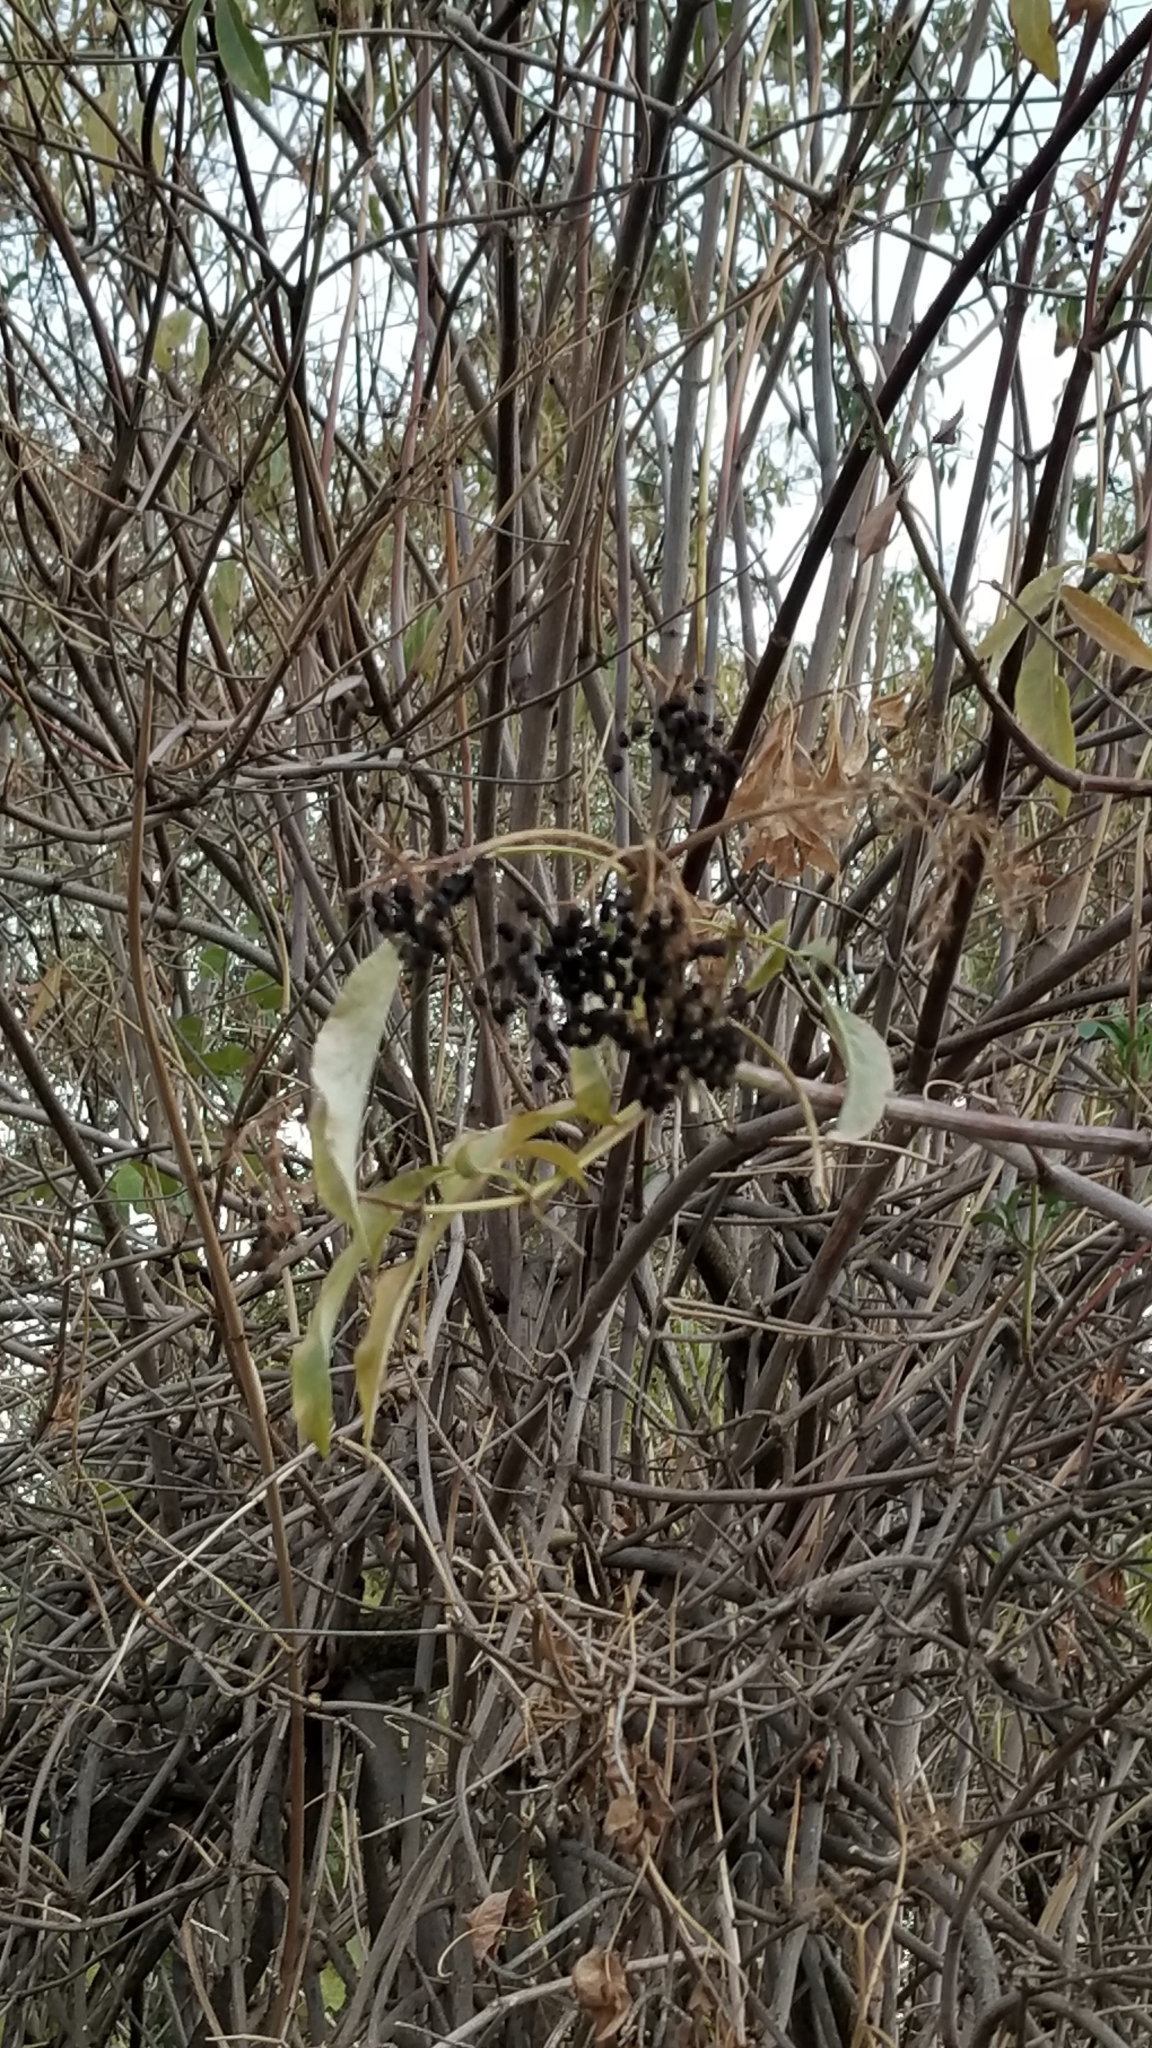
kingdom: Plantae
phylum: Tracheophyta
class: Magnoliopsida
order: Dipsacales
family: Viburnaceae
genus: Sambucus
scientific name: Sambucus cerulea
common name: Blue elder
